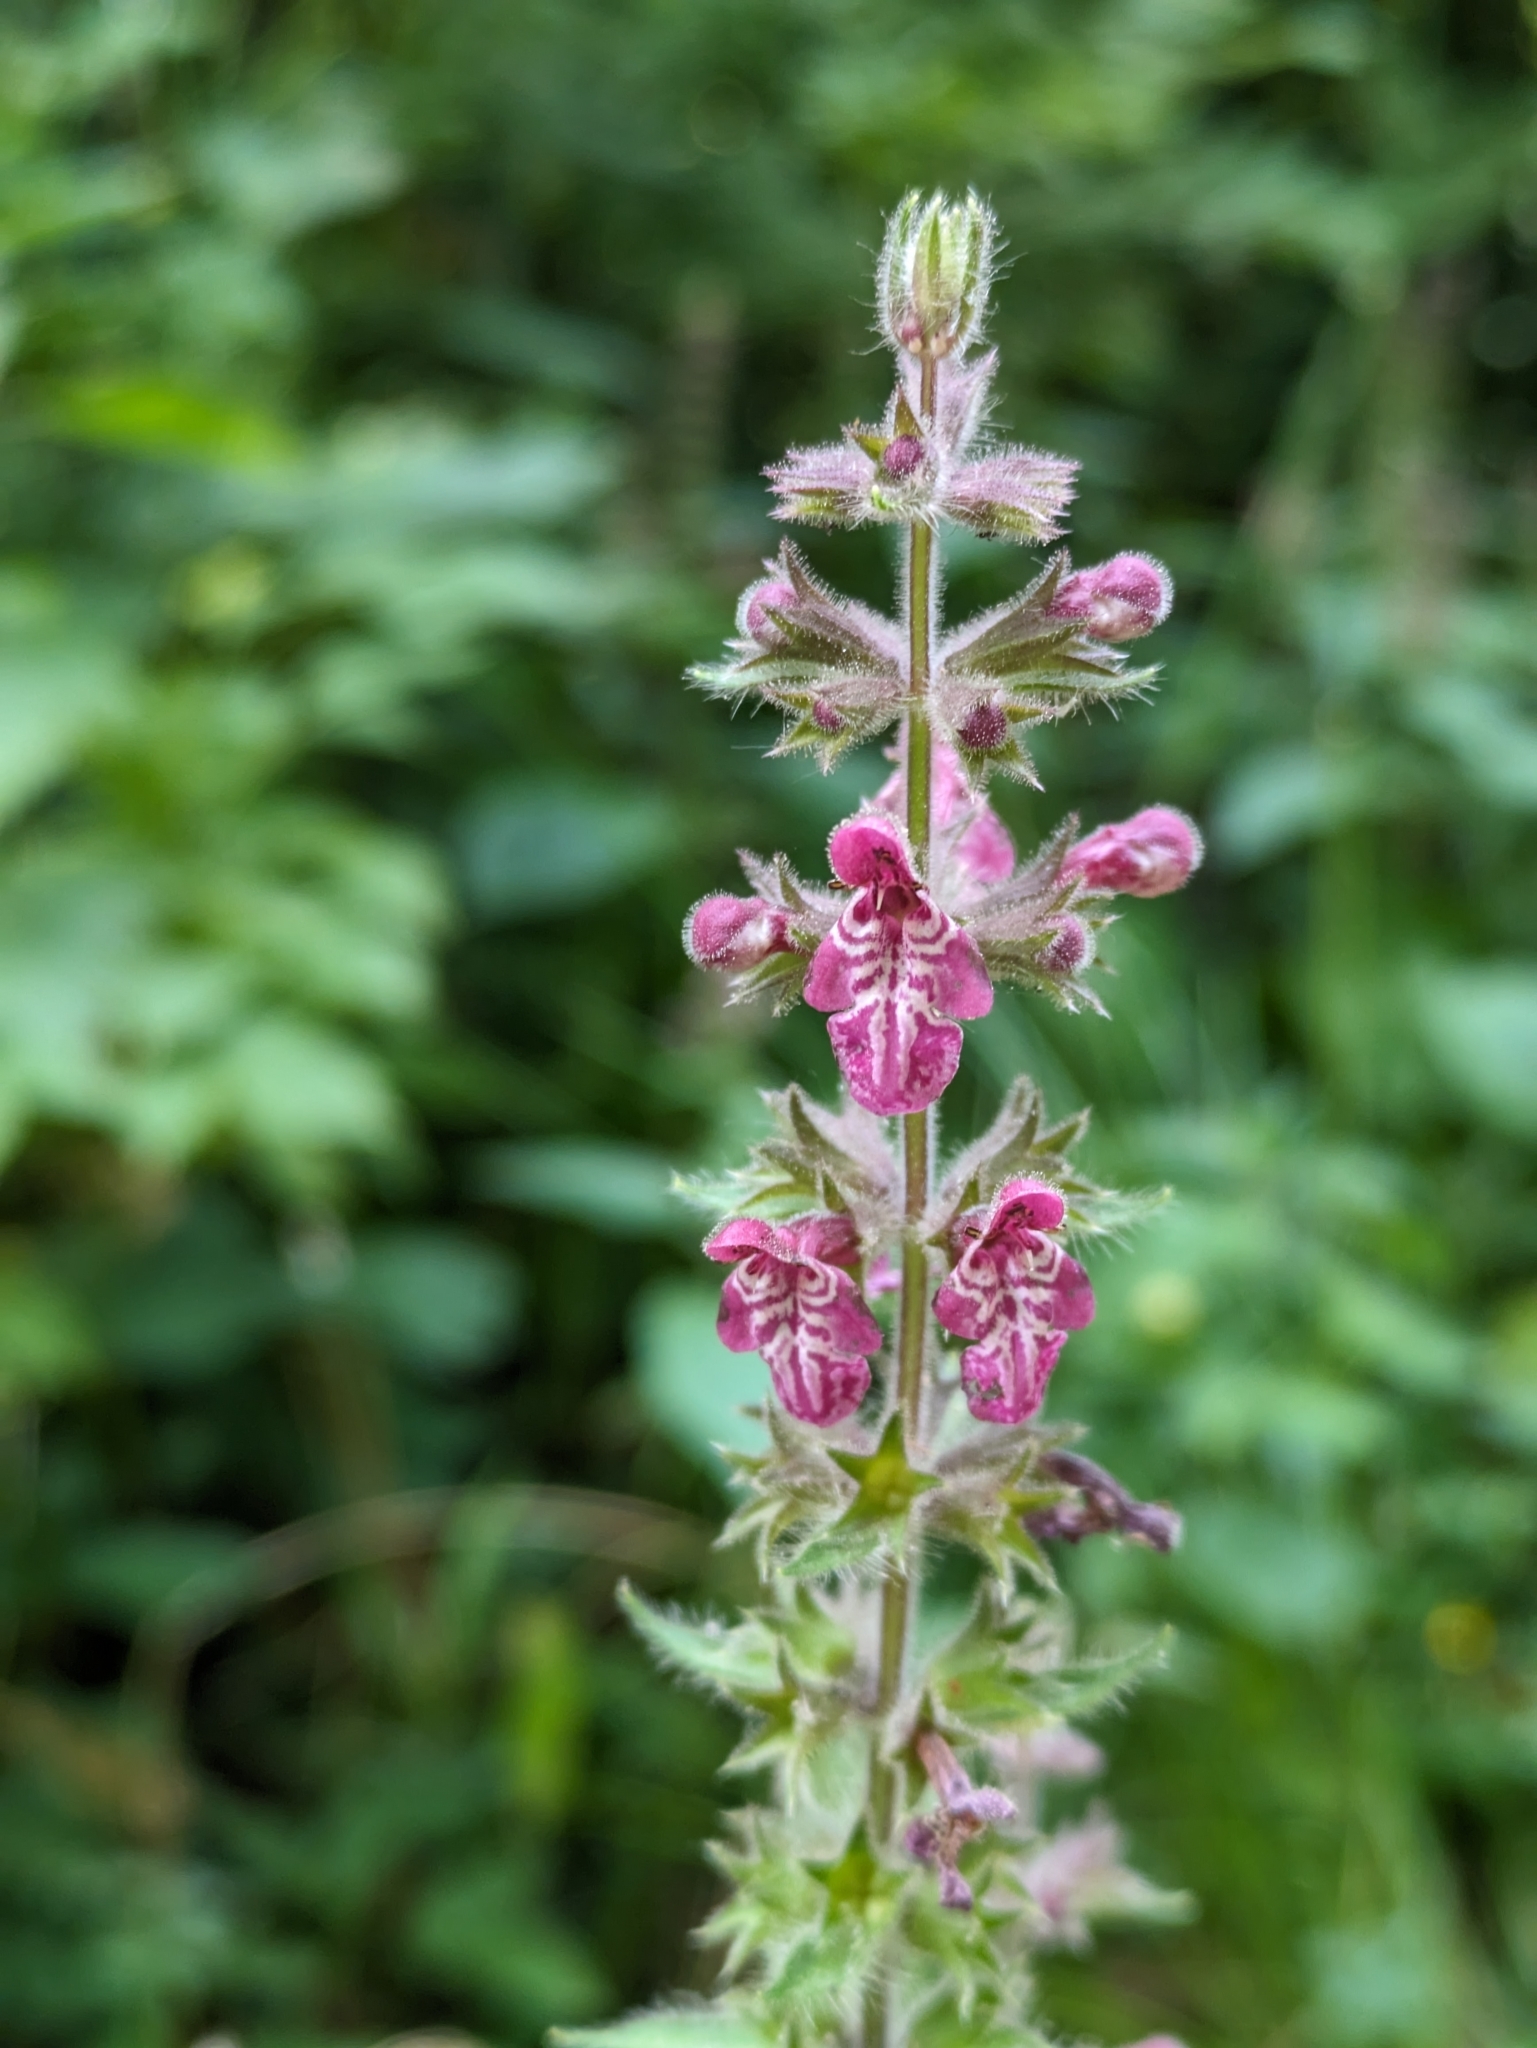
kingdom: Plantae
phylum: Tracheophyta
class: Magnoliopsida
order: Lamiales
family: Lamiaceae
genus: Stachys
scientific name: Stachys sylvatica
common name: Hedge woundwort
